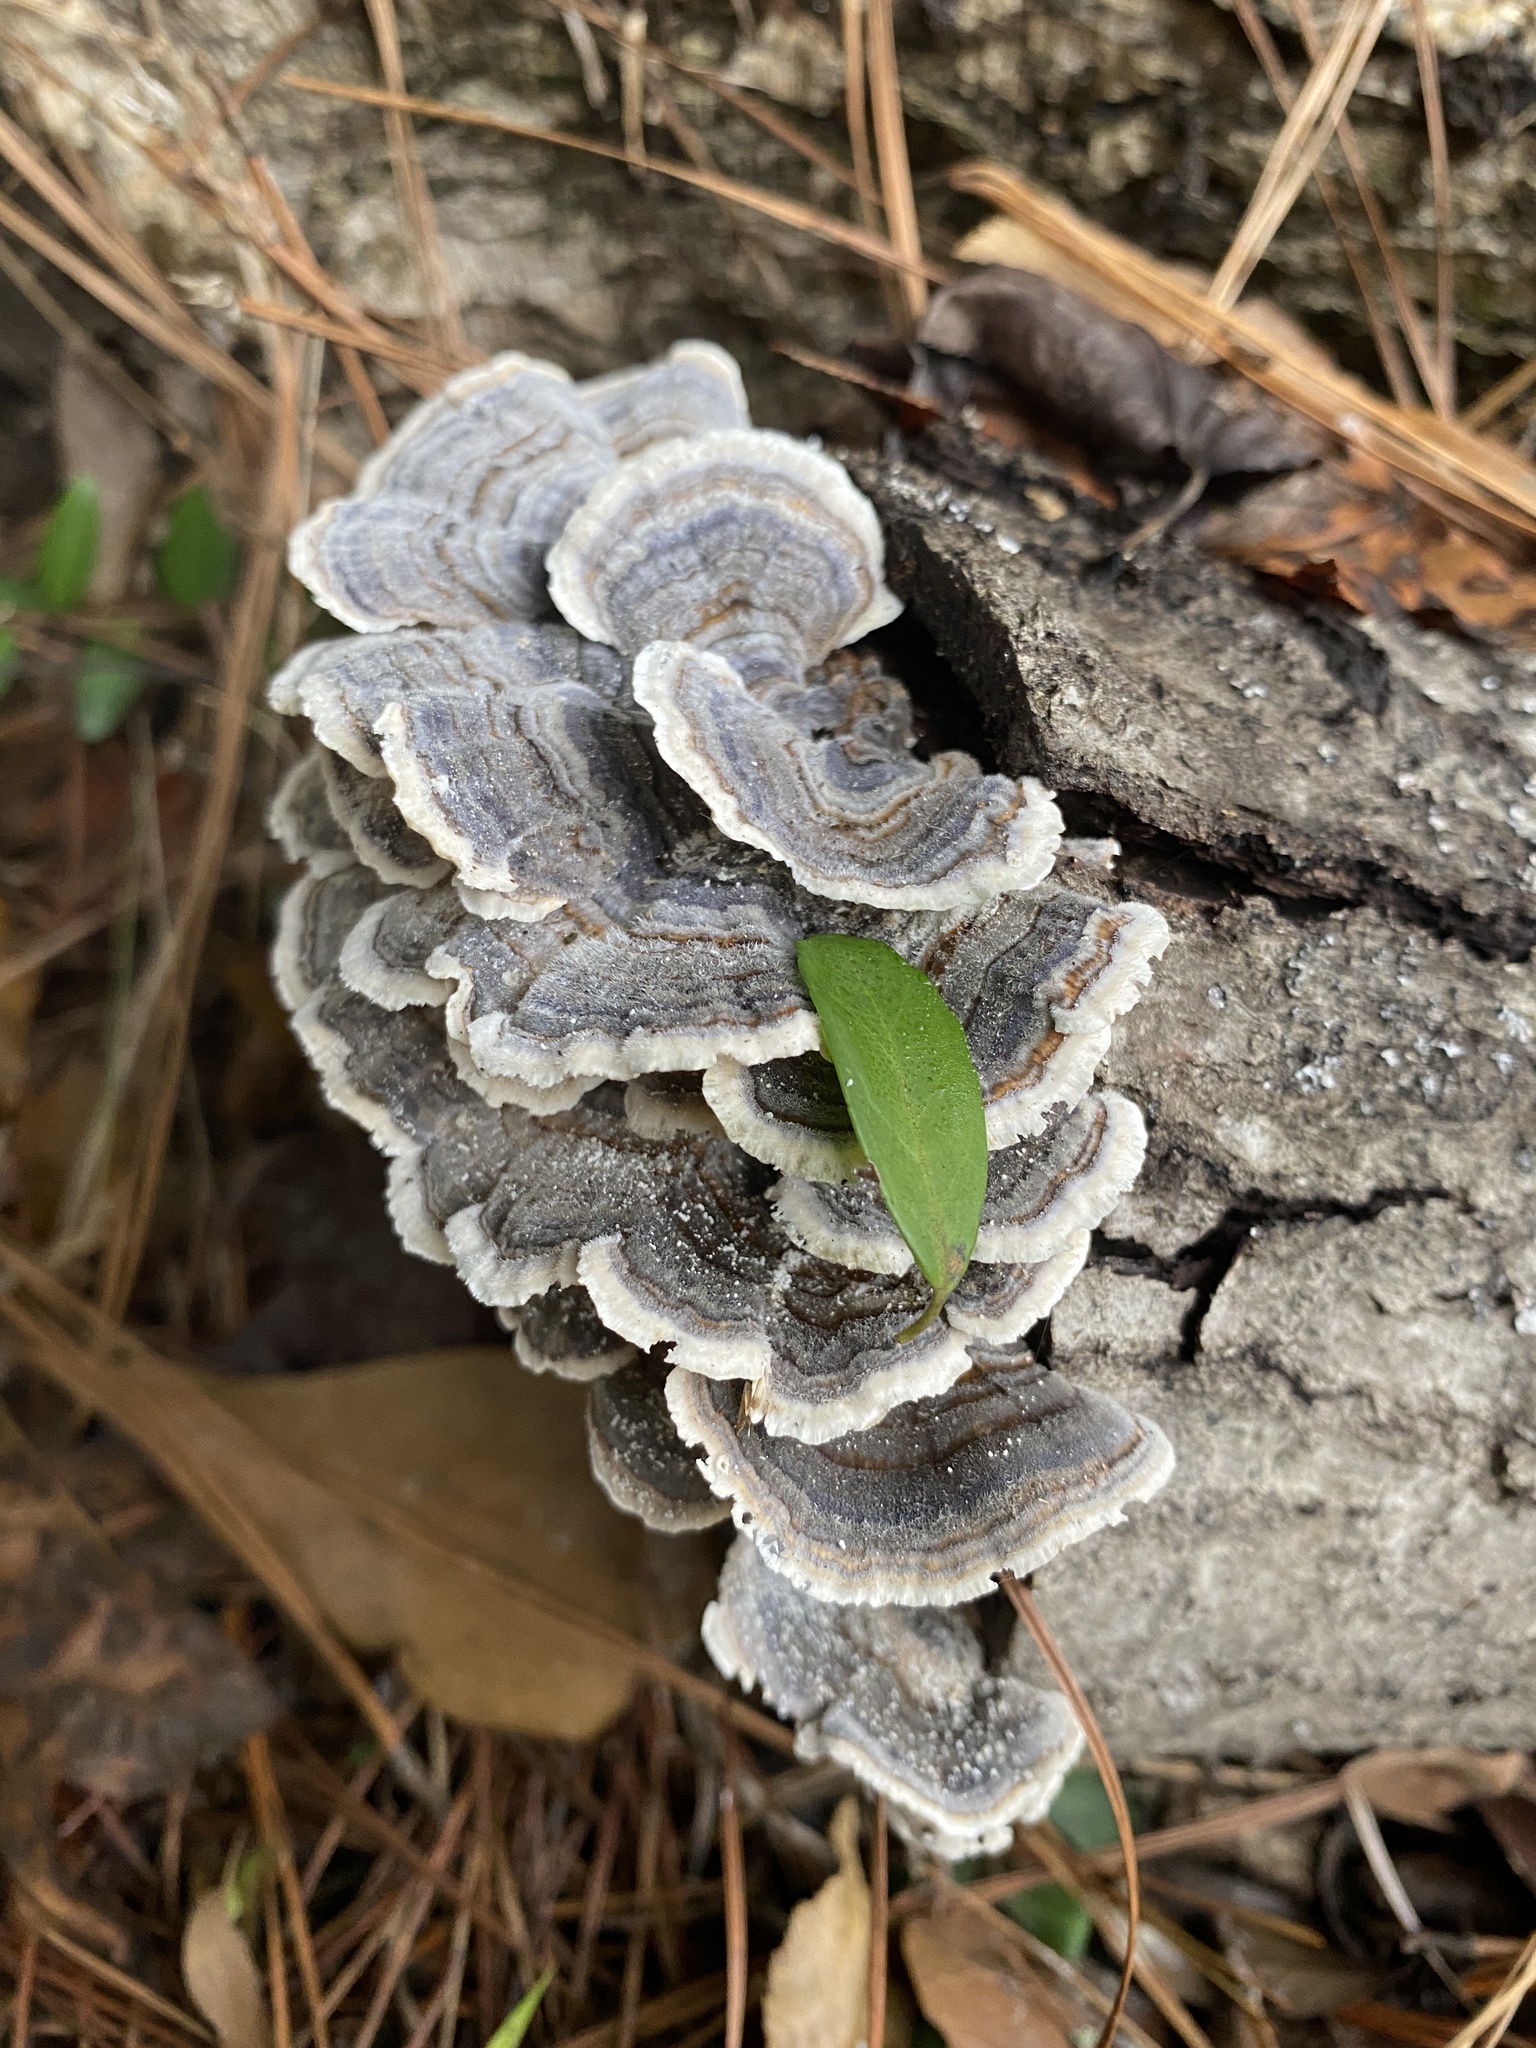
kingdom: Fungi
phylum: Basidiomycota
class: Agaricomycetes
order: Polyporales
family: Polyporaceae
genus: Trametes
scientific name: Trametes versicolor
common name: Turkeytail
